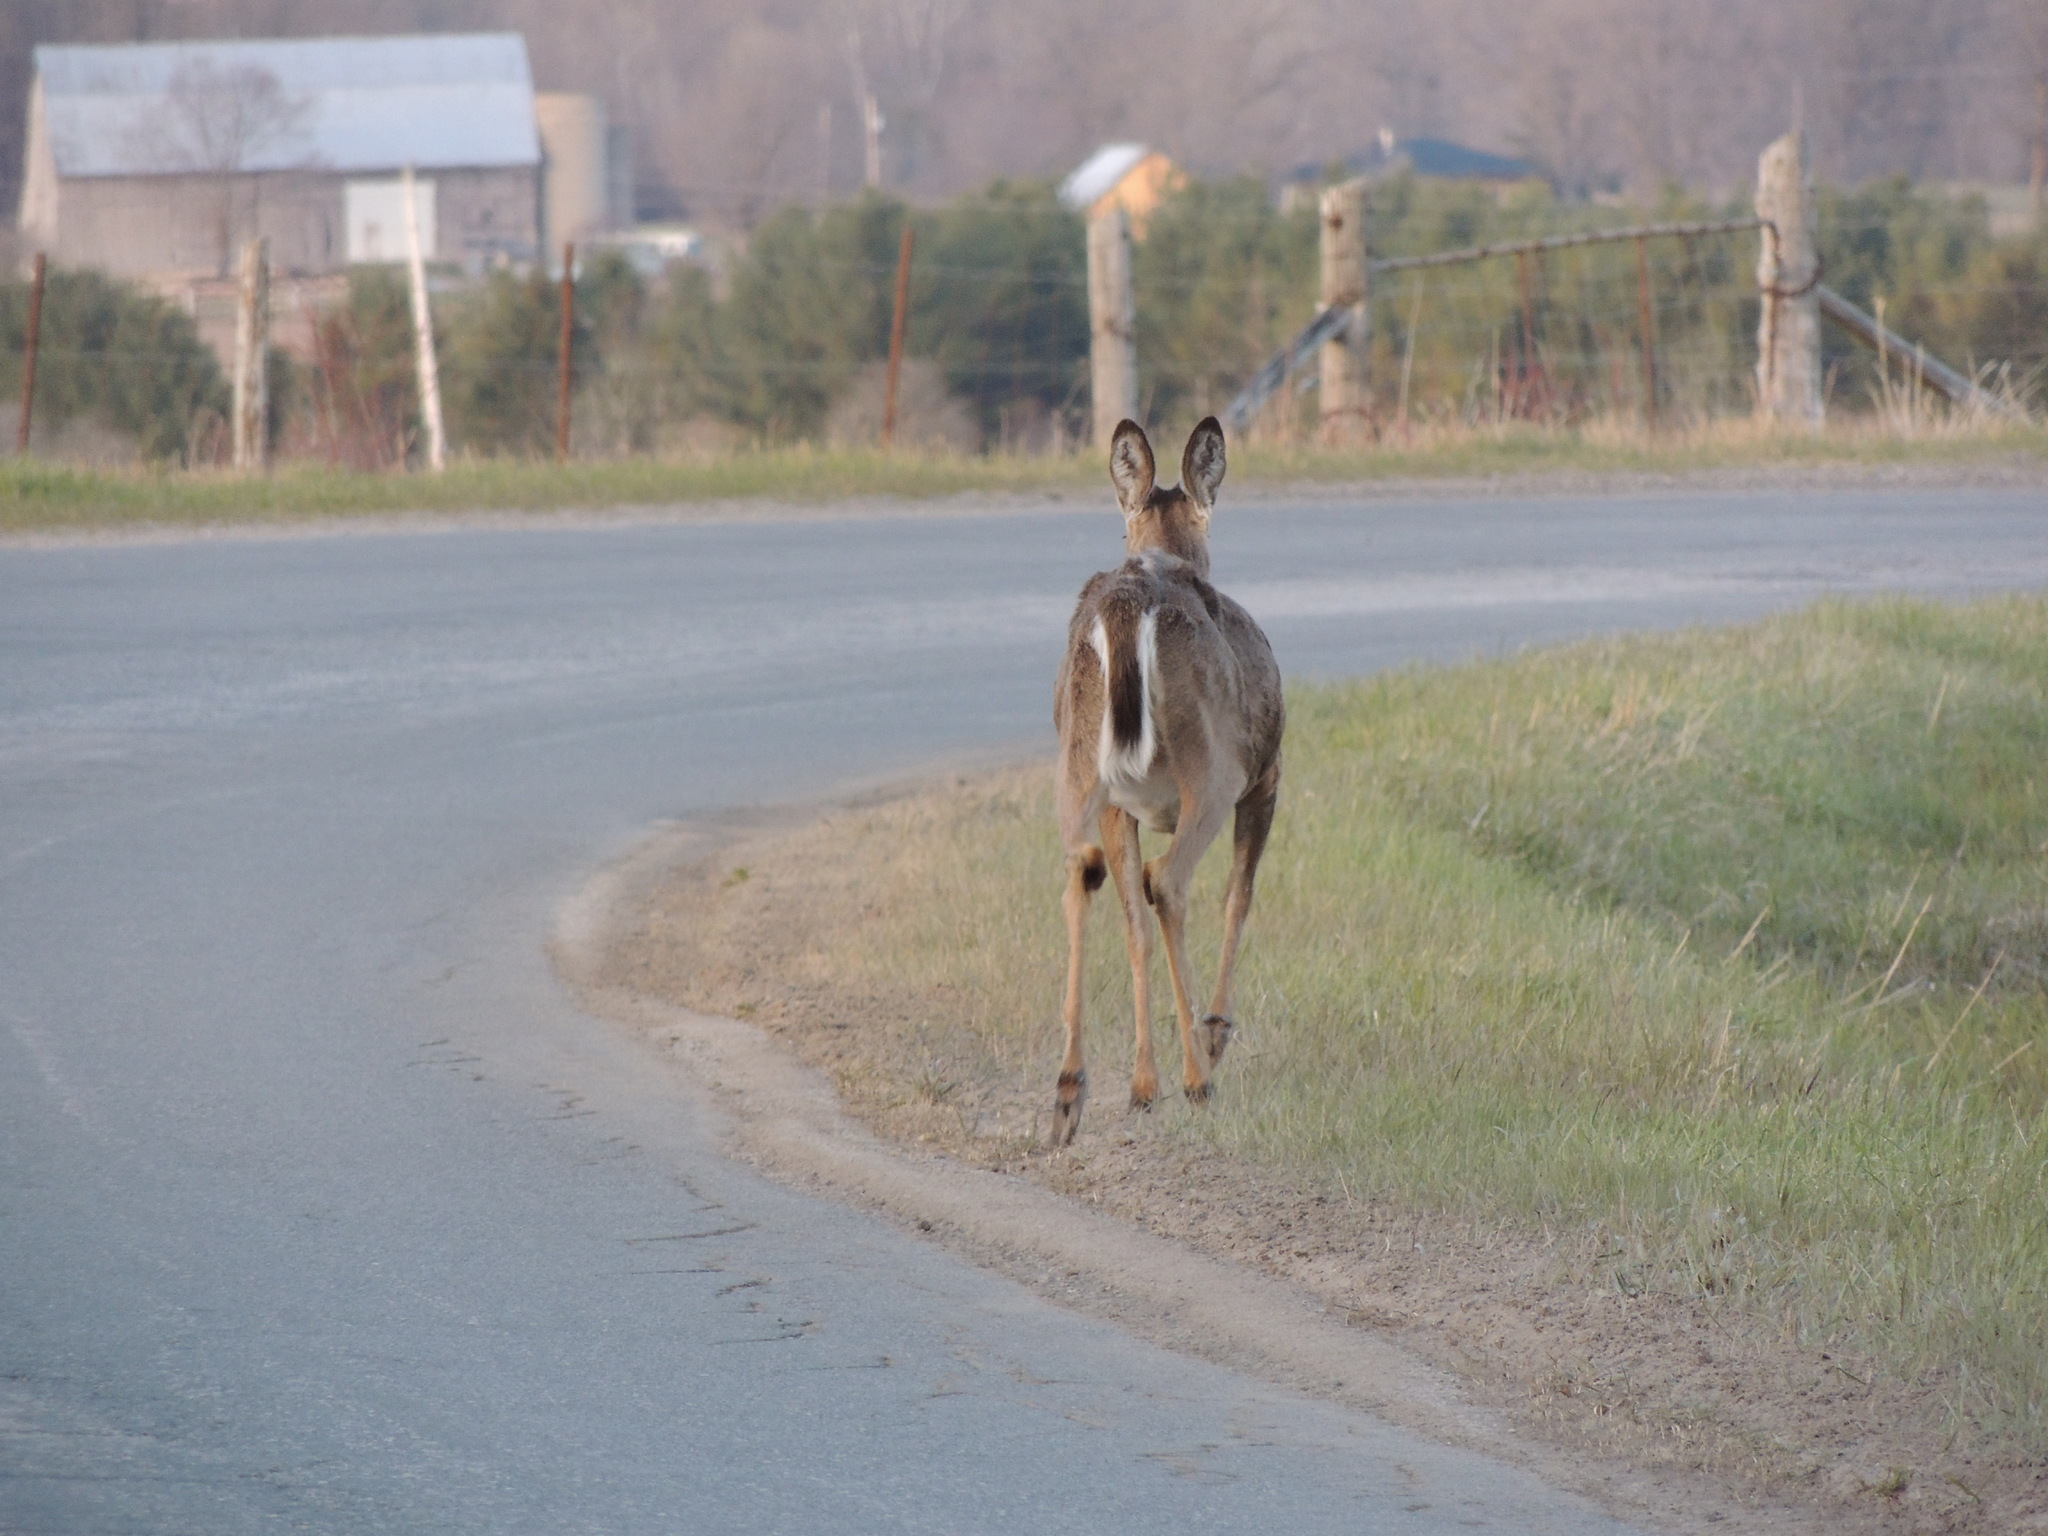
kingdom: Animalia
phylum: Chordata
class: Mammalia
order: Artiodactyla
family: Cervidae
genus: Odocoileus
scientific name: Odocoileus virginianus
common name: White-tailed deer
